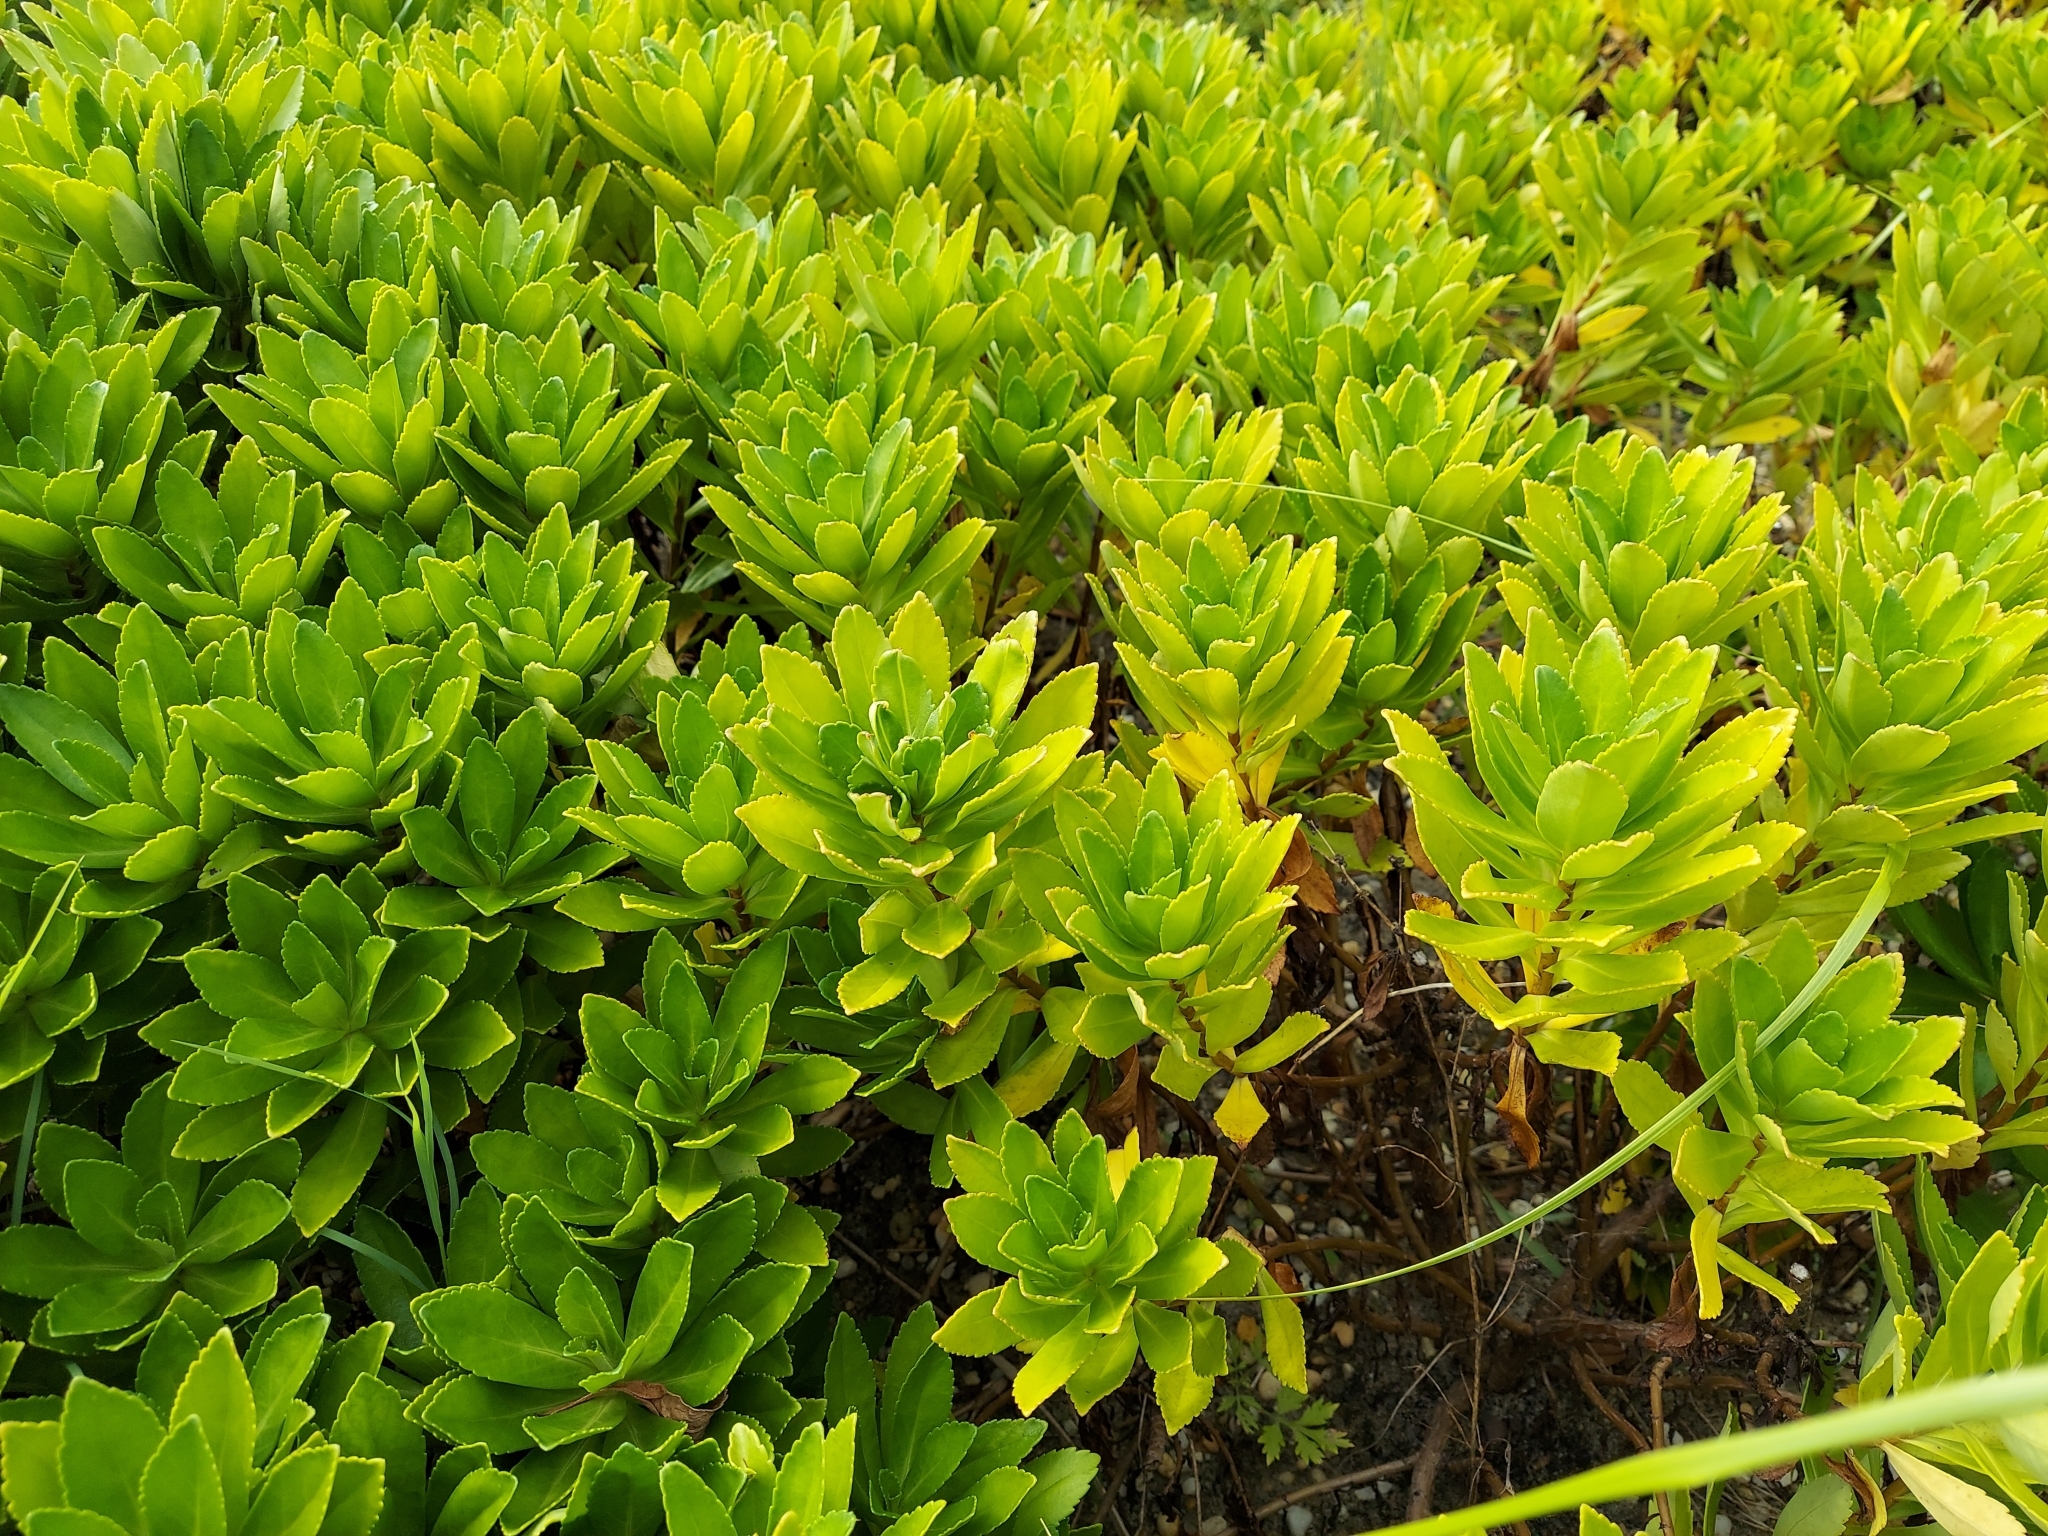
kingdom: Plantae
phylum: Tracheophyta
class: Magnoliopsida
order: Asterales
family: Asteraceae
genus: Nipponanthemum
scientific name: Nipponanthemum nipponicum
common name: Nippon daisy
